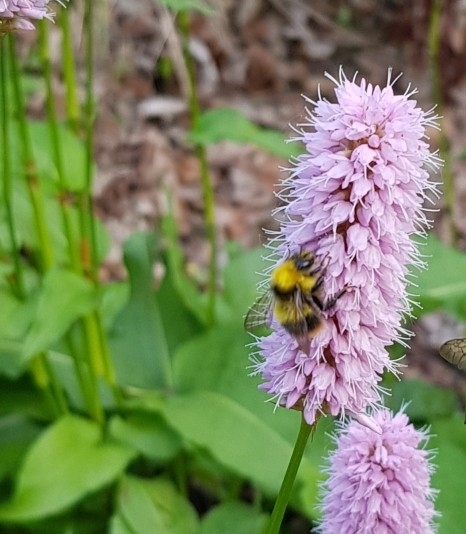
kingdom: Animalia
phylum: Arthropoda
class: Insecta
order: Hymenoptera
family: Apidae
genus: Bombus
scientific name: Bombus pratorum
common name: Early humble-bee
